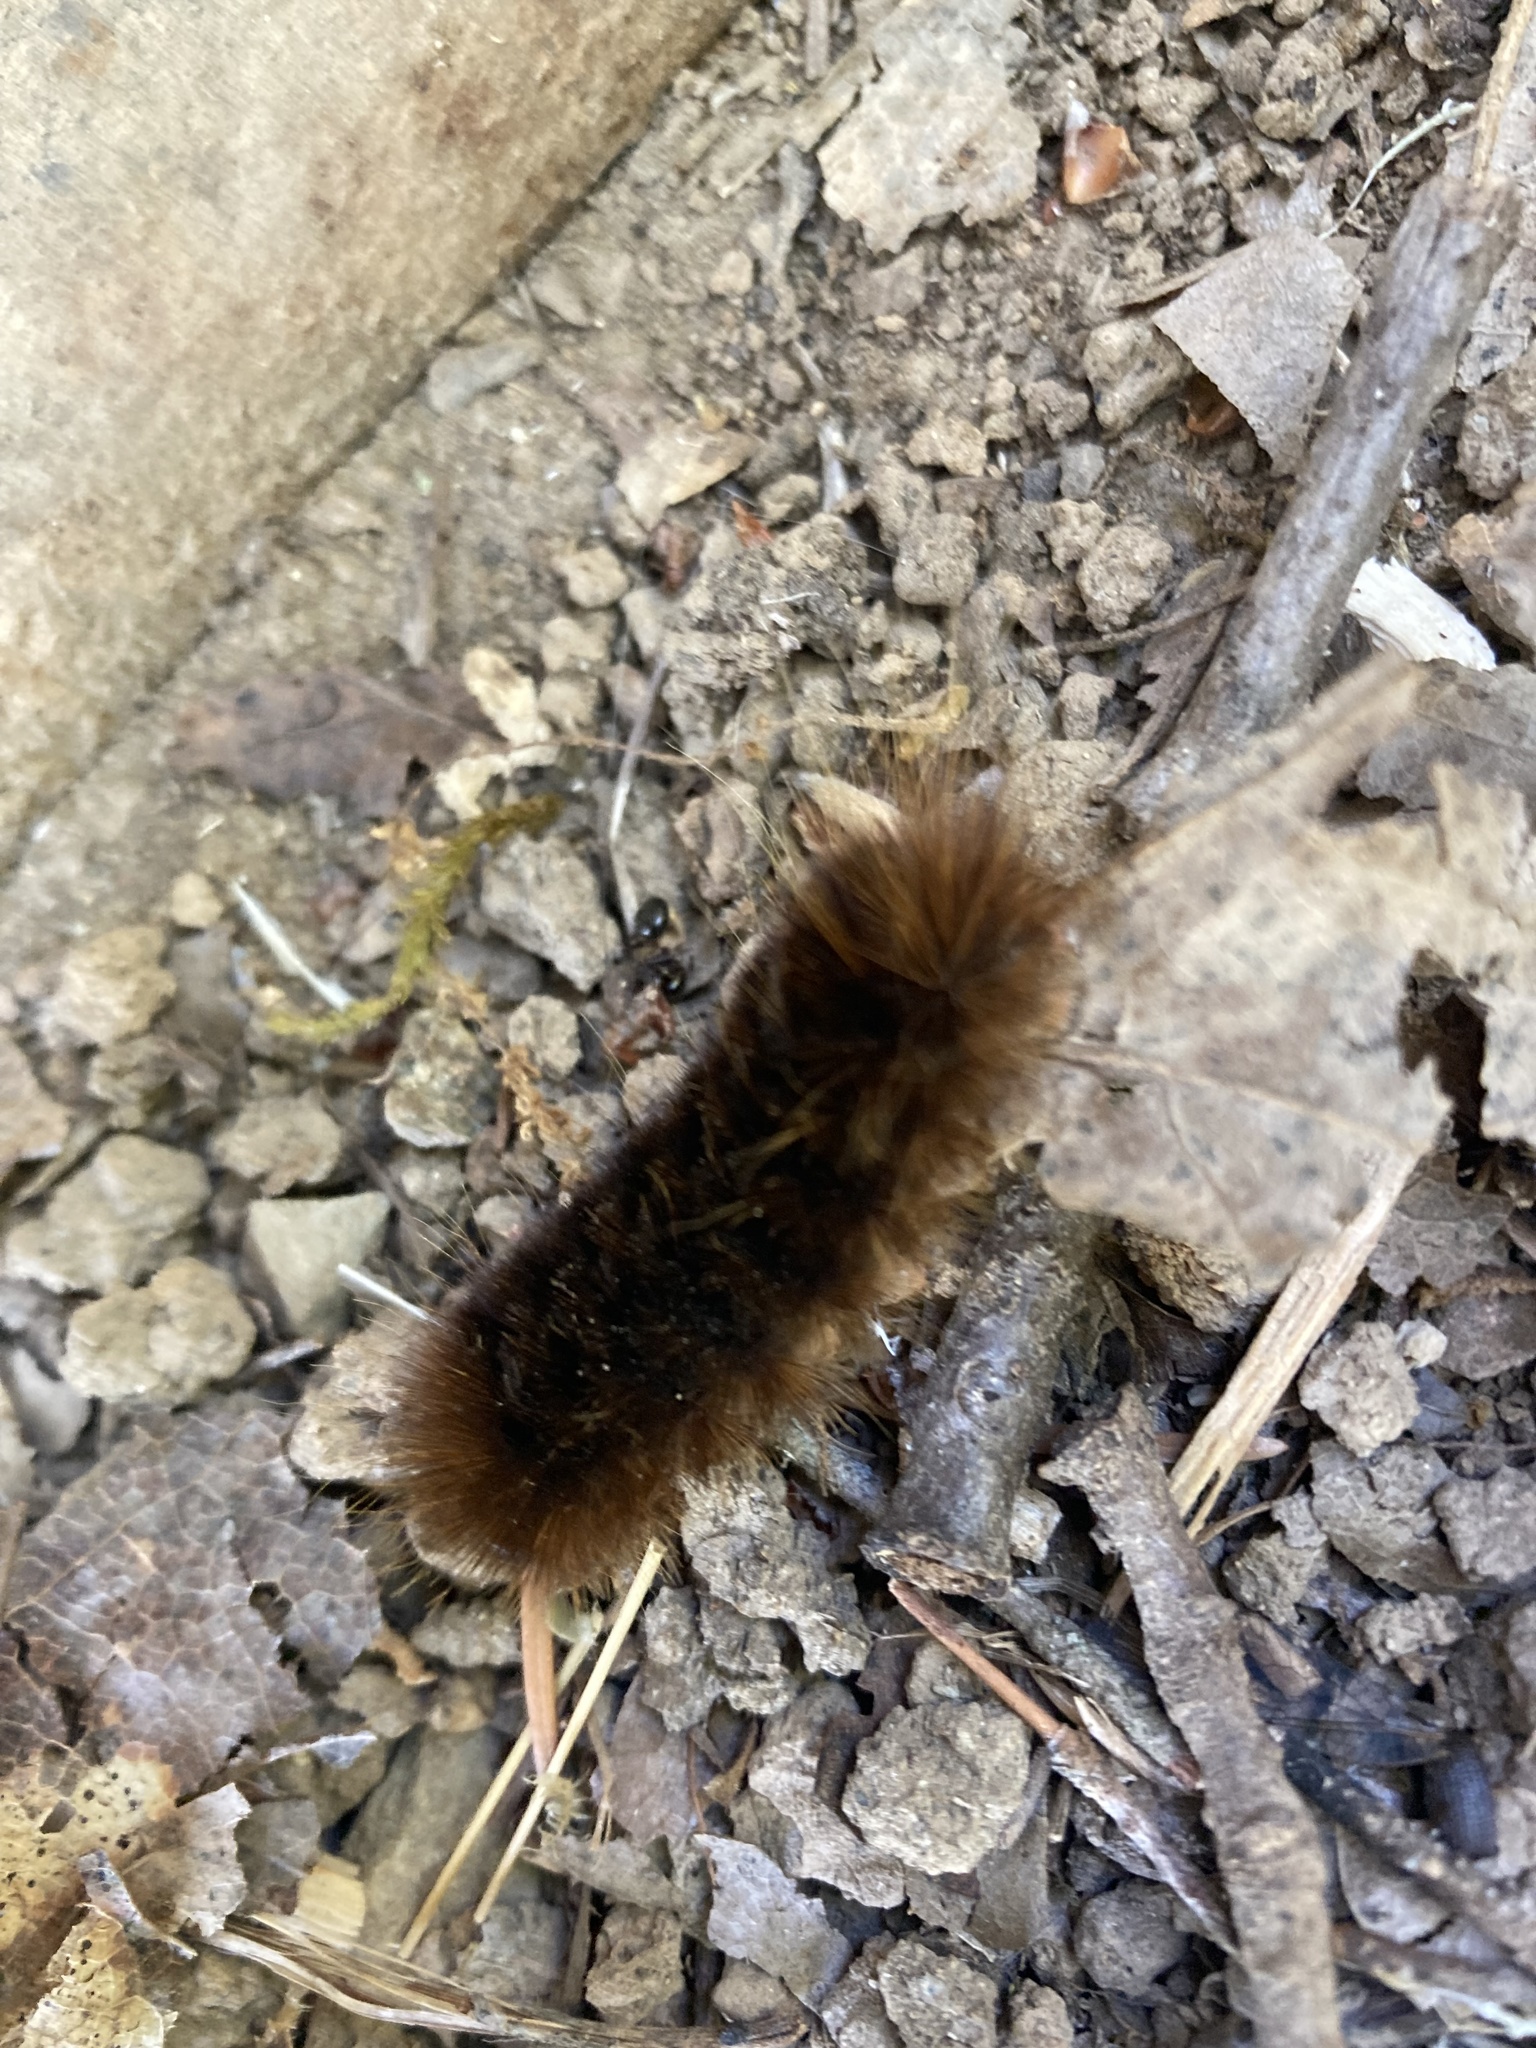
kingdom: Animalia
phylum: Arthropoda
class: Insecta
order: Lepidoptera
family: Erebidae
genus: Hemihyalea
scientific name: Hemihyalea edwardsii
